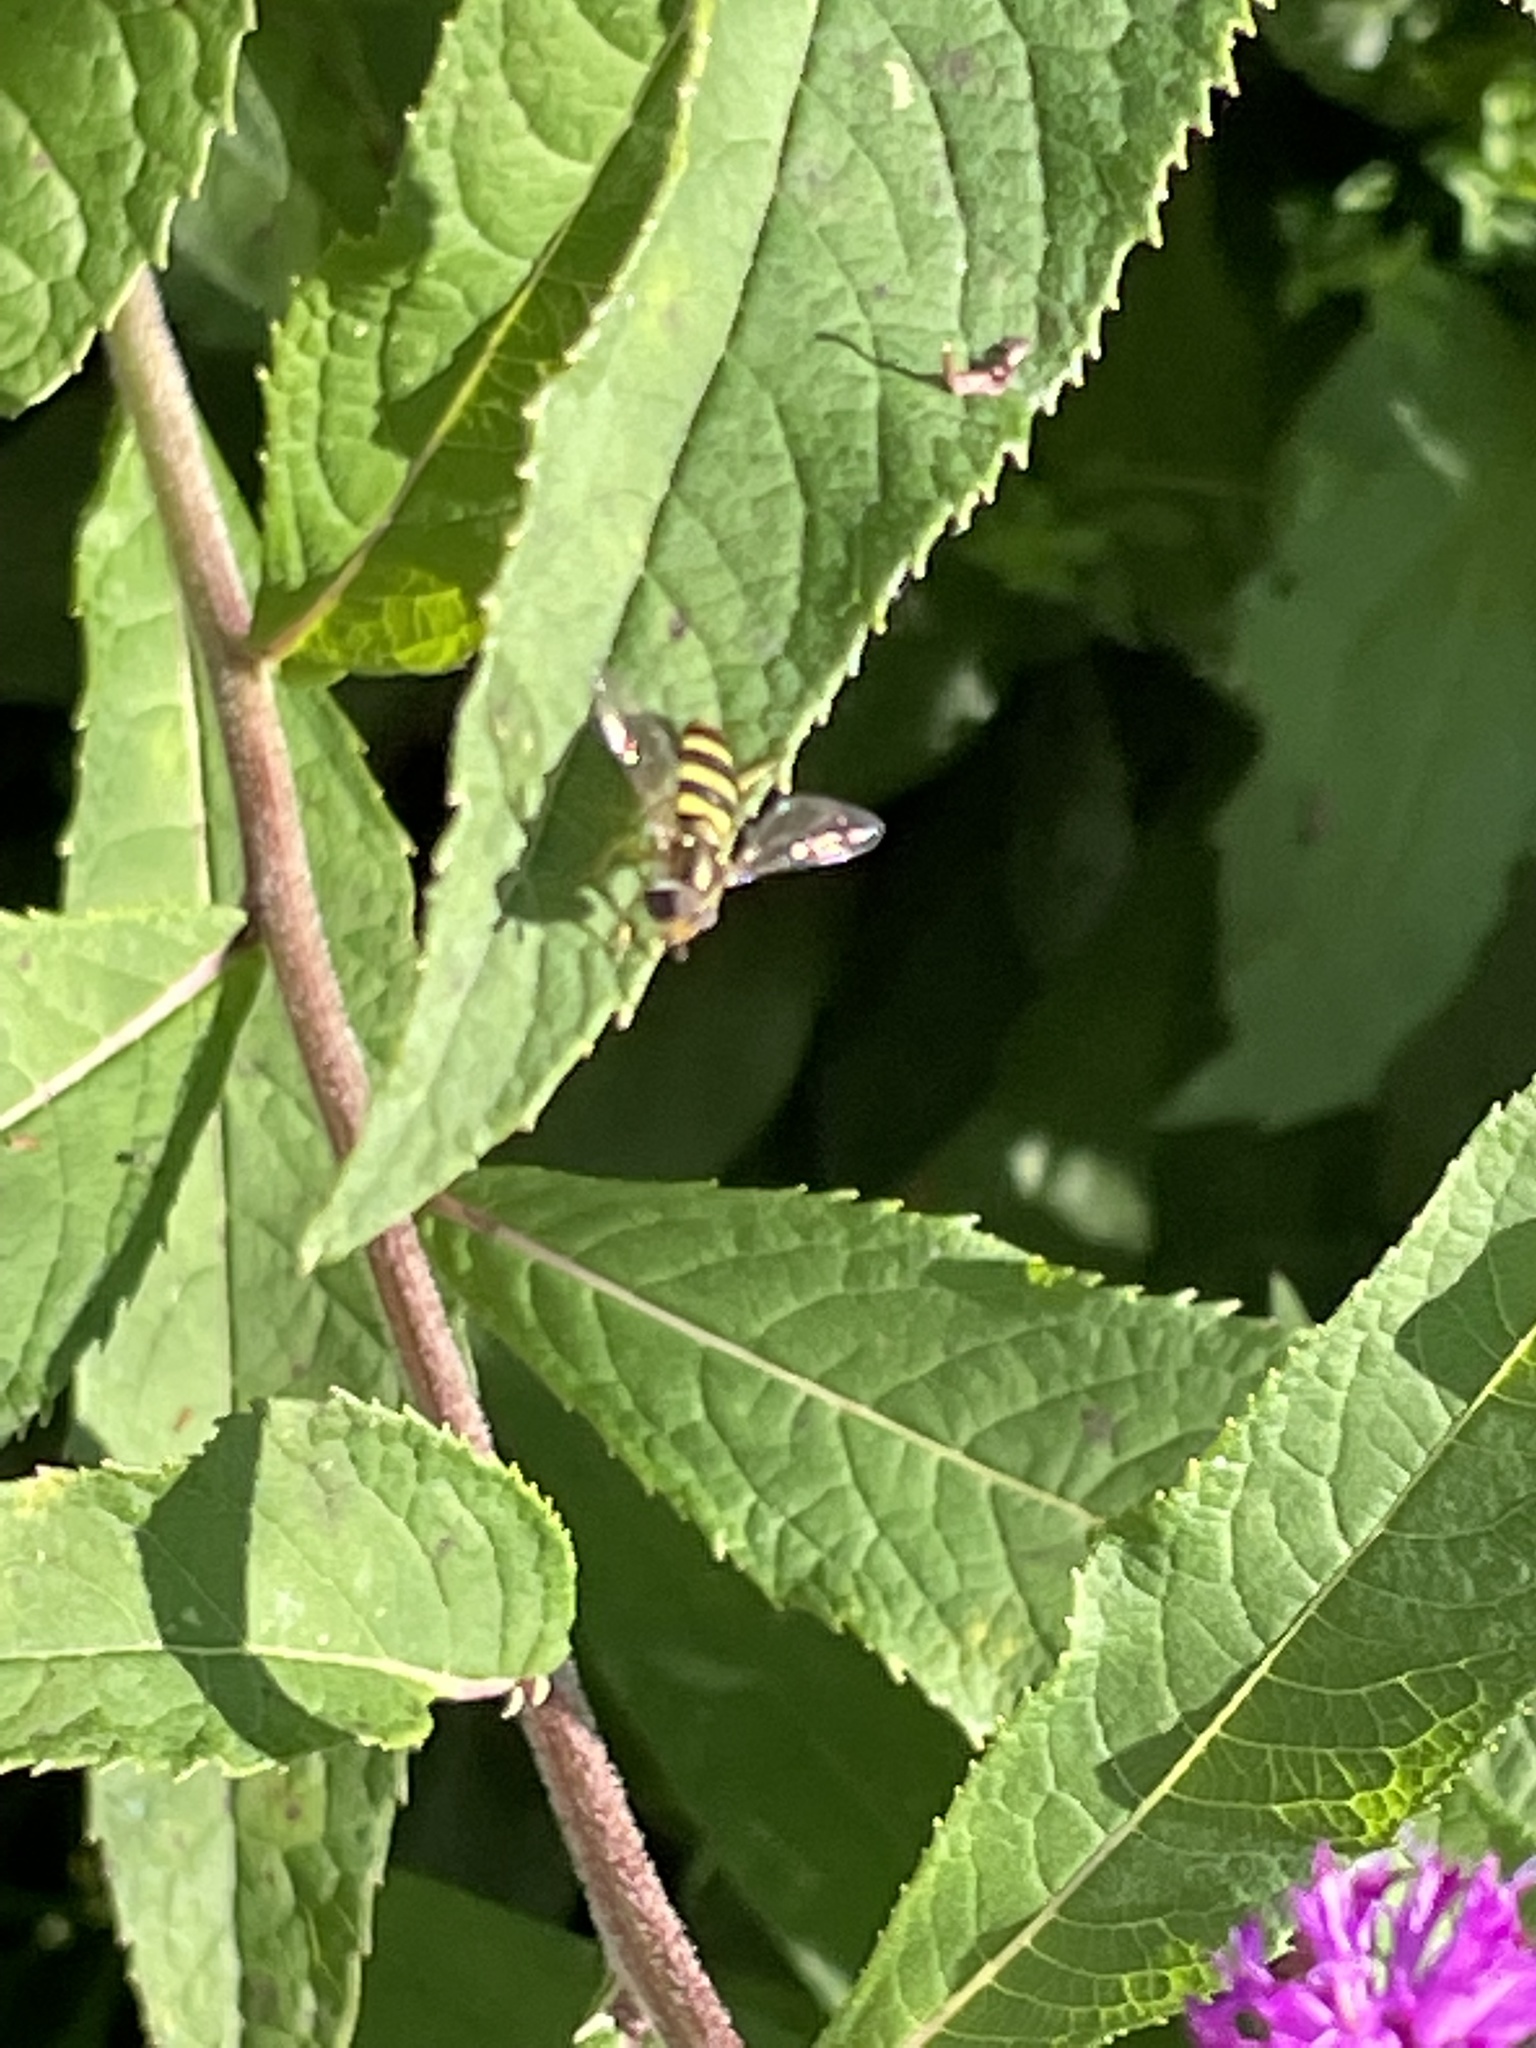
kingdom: Animalia
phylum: Arthropoda
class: Insecta
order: Diptera
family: Syrphidae
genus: Eupeodes
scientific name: Eupeodes
